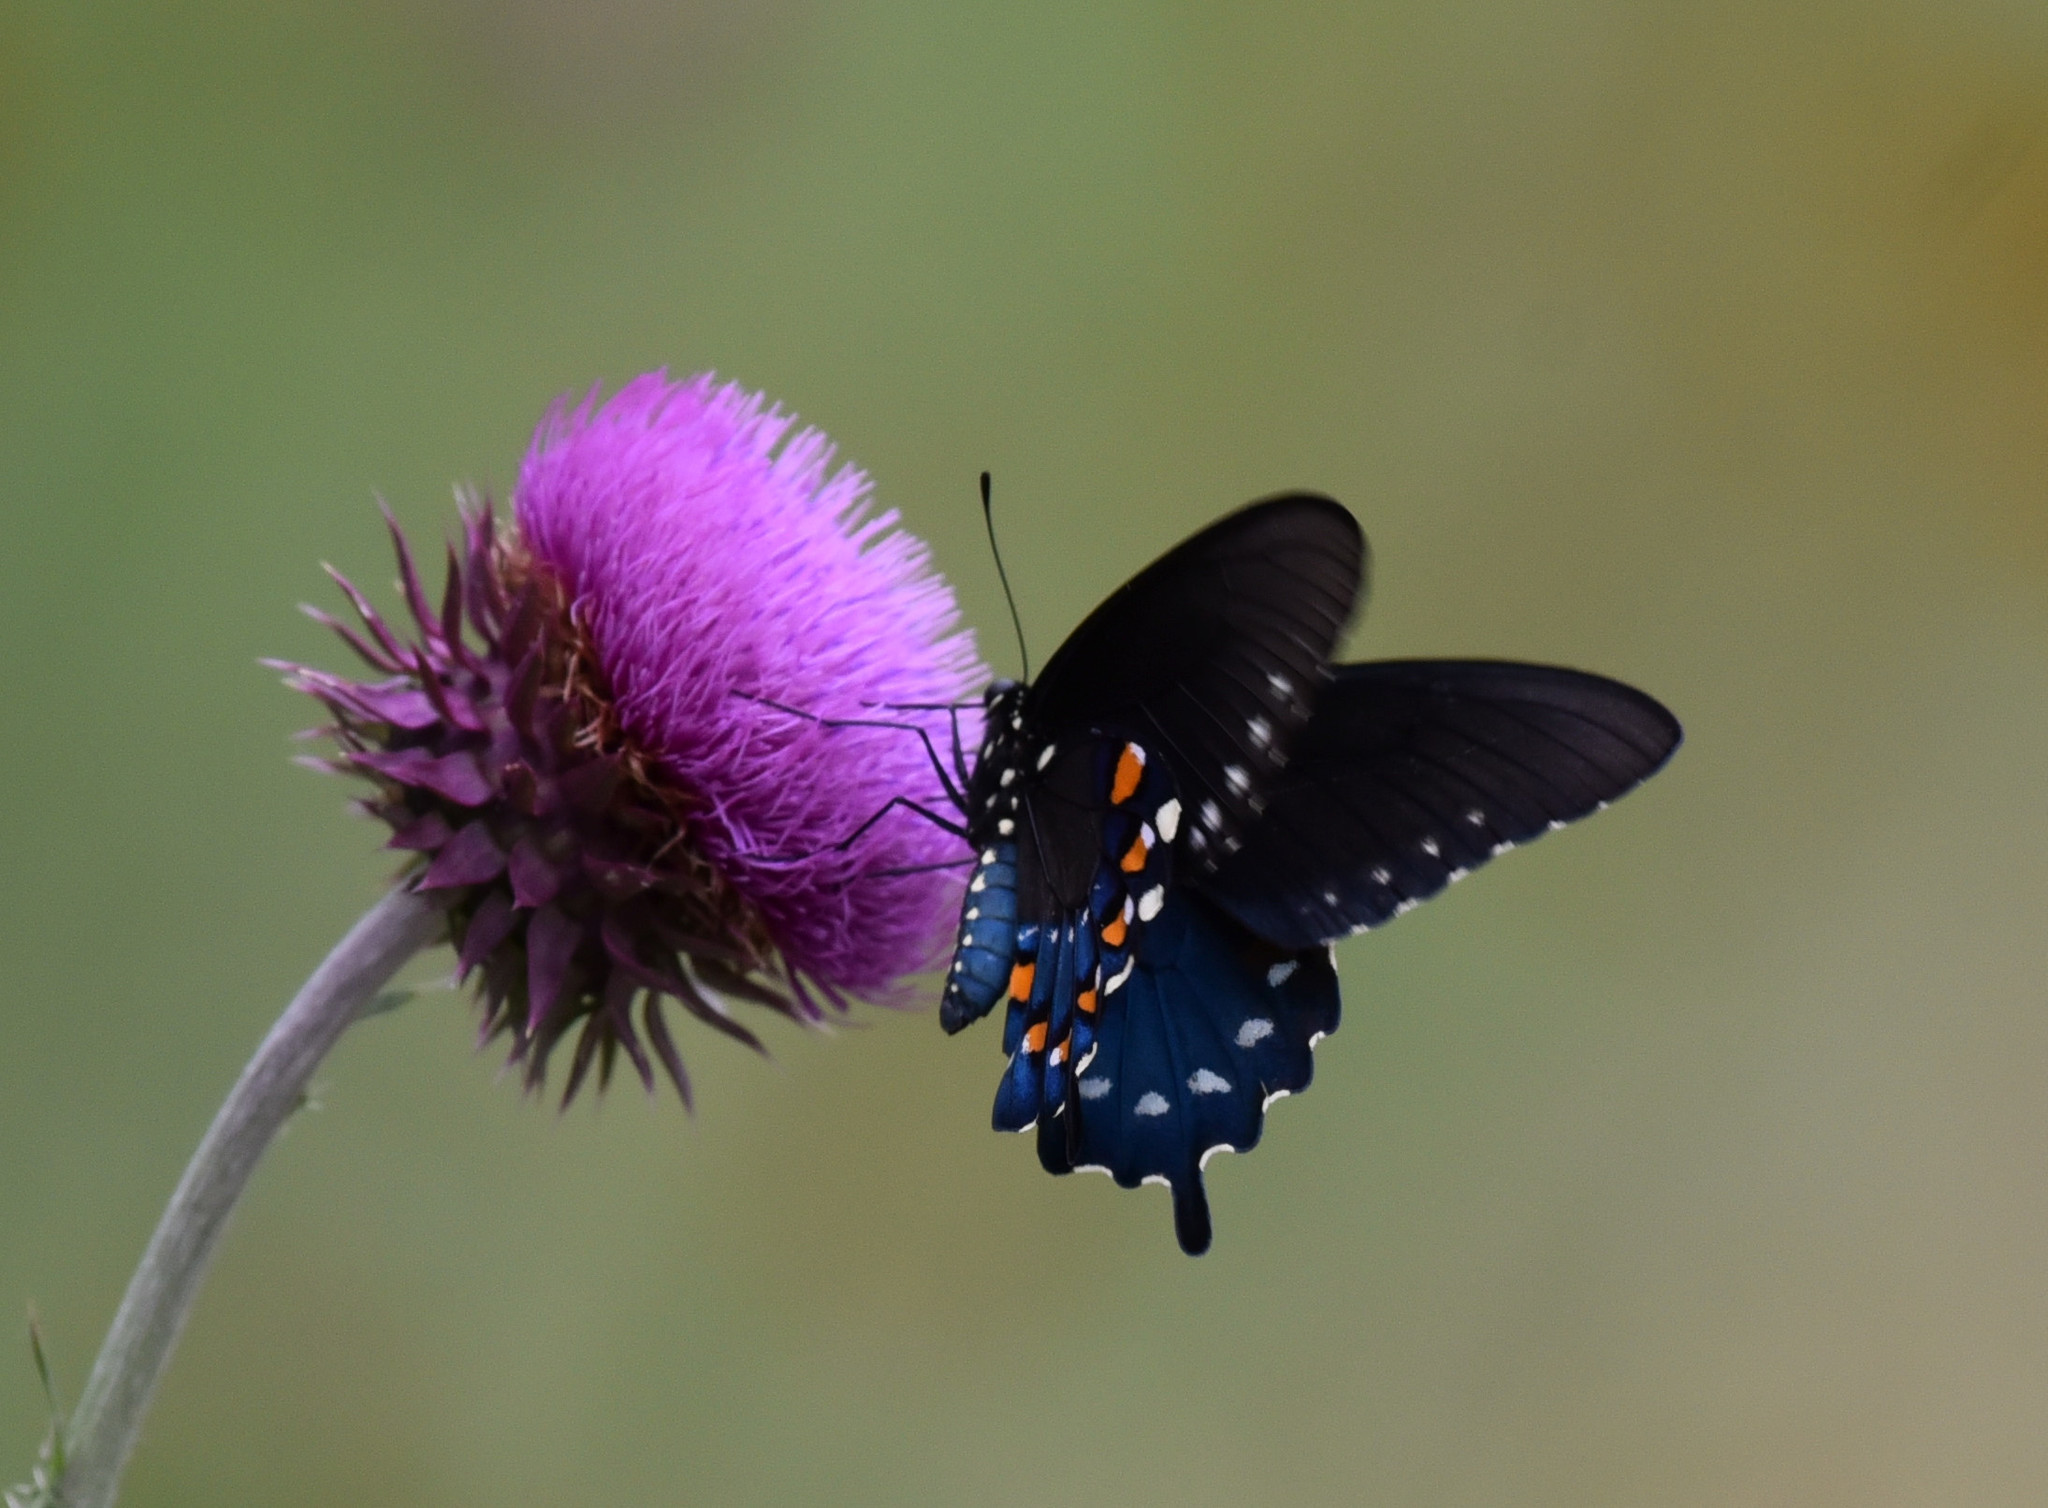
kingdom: Animalia
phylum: Arthropoda
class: Insecta
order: Lepidoptera
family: Papilionidae
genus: Battus
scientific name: Battus philenor
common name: Pipevine swallowtail
